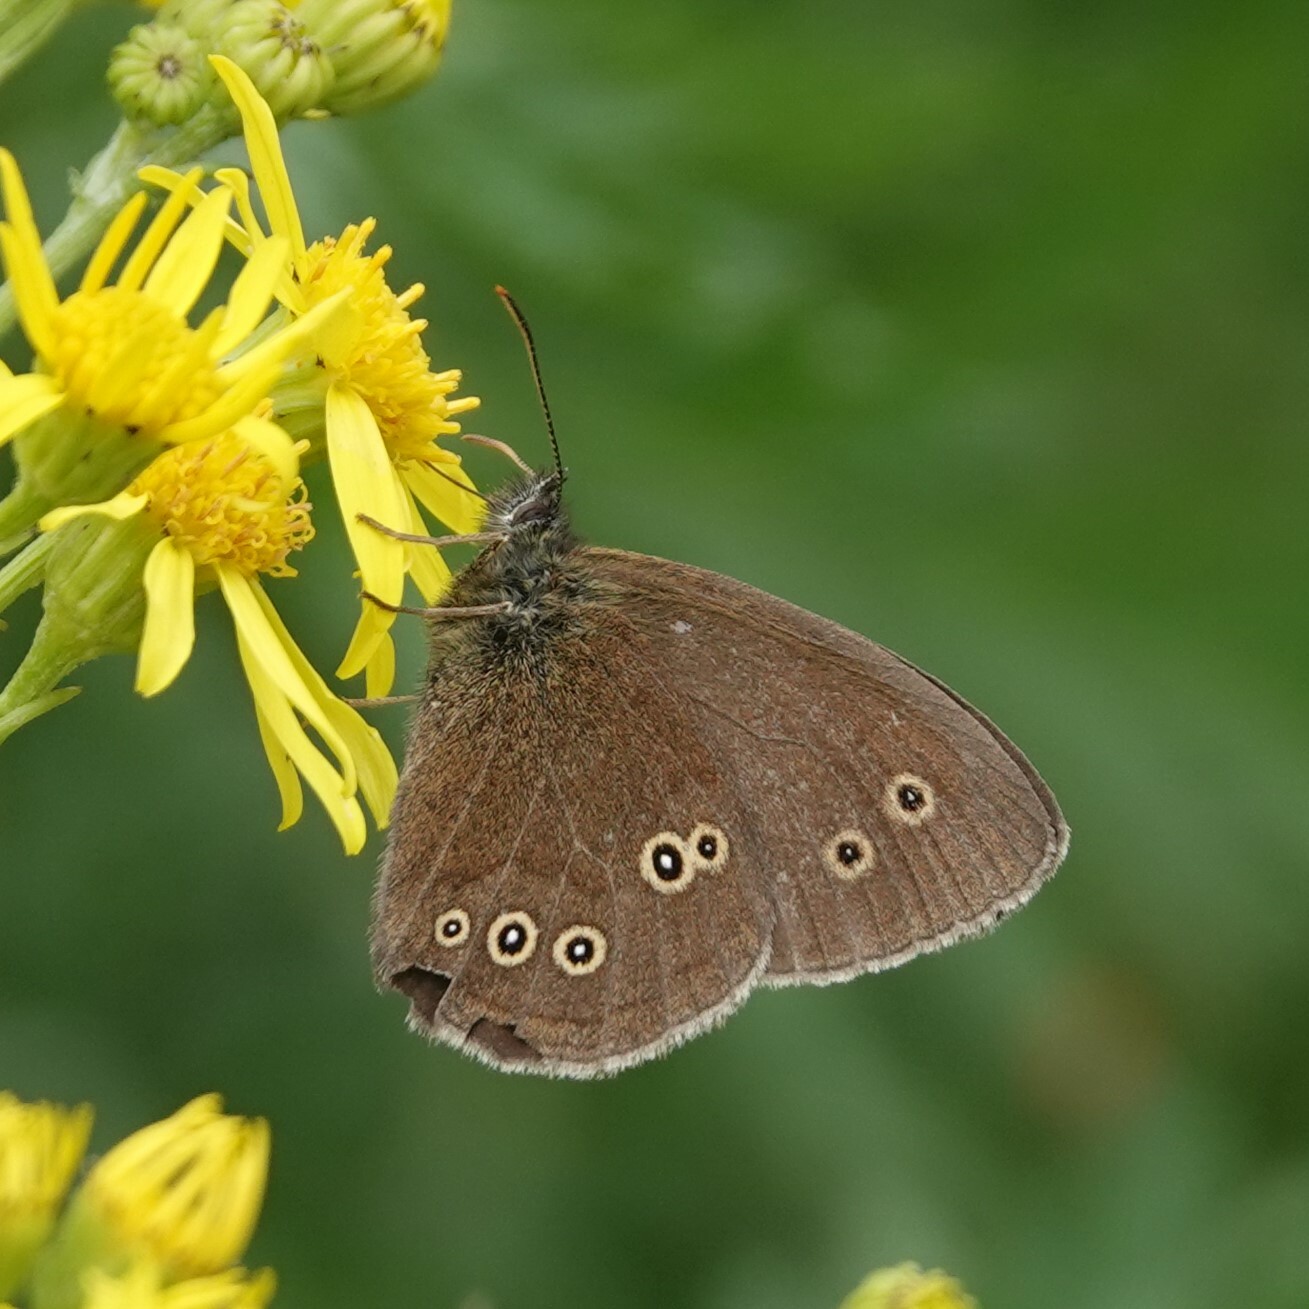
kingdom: Animalia
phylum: Arthropoda
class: Insecta
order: Lepidoptera
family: Nymphalidae
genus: Aphantopus
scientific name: Aphantopus hyperantus
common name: Ringlet
